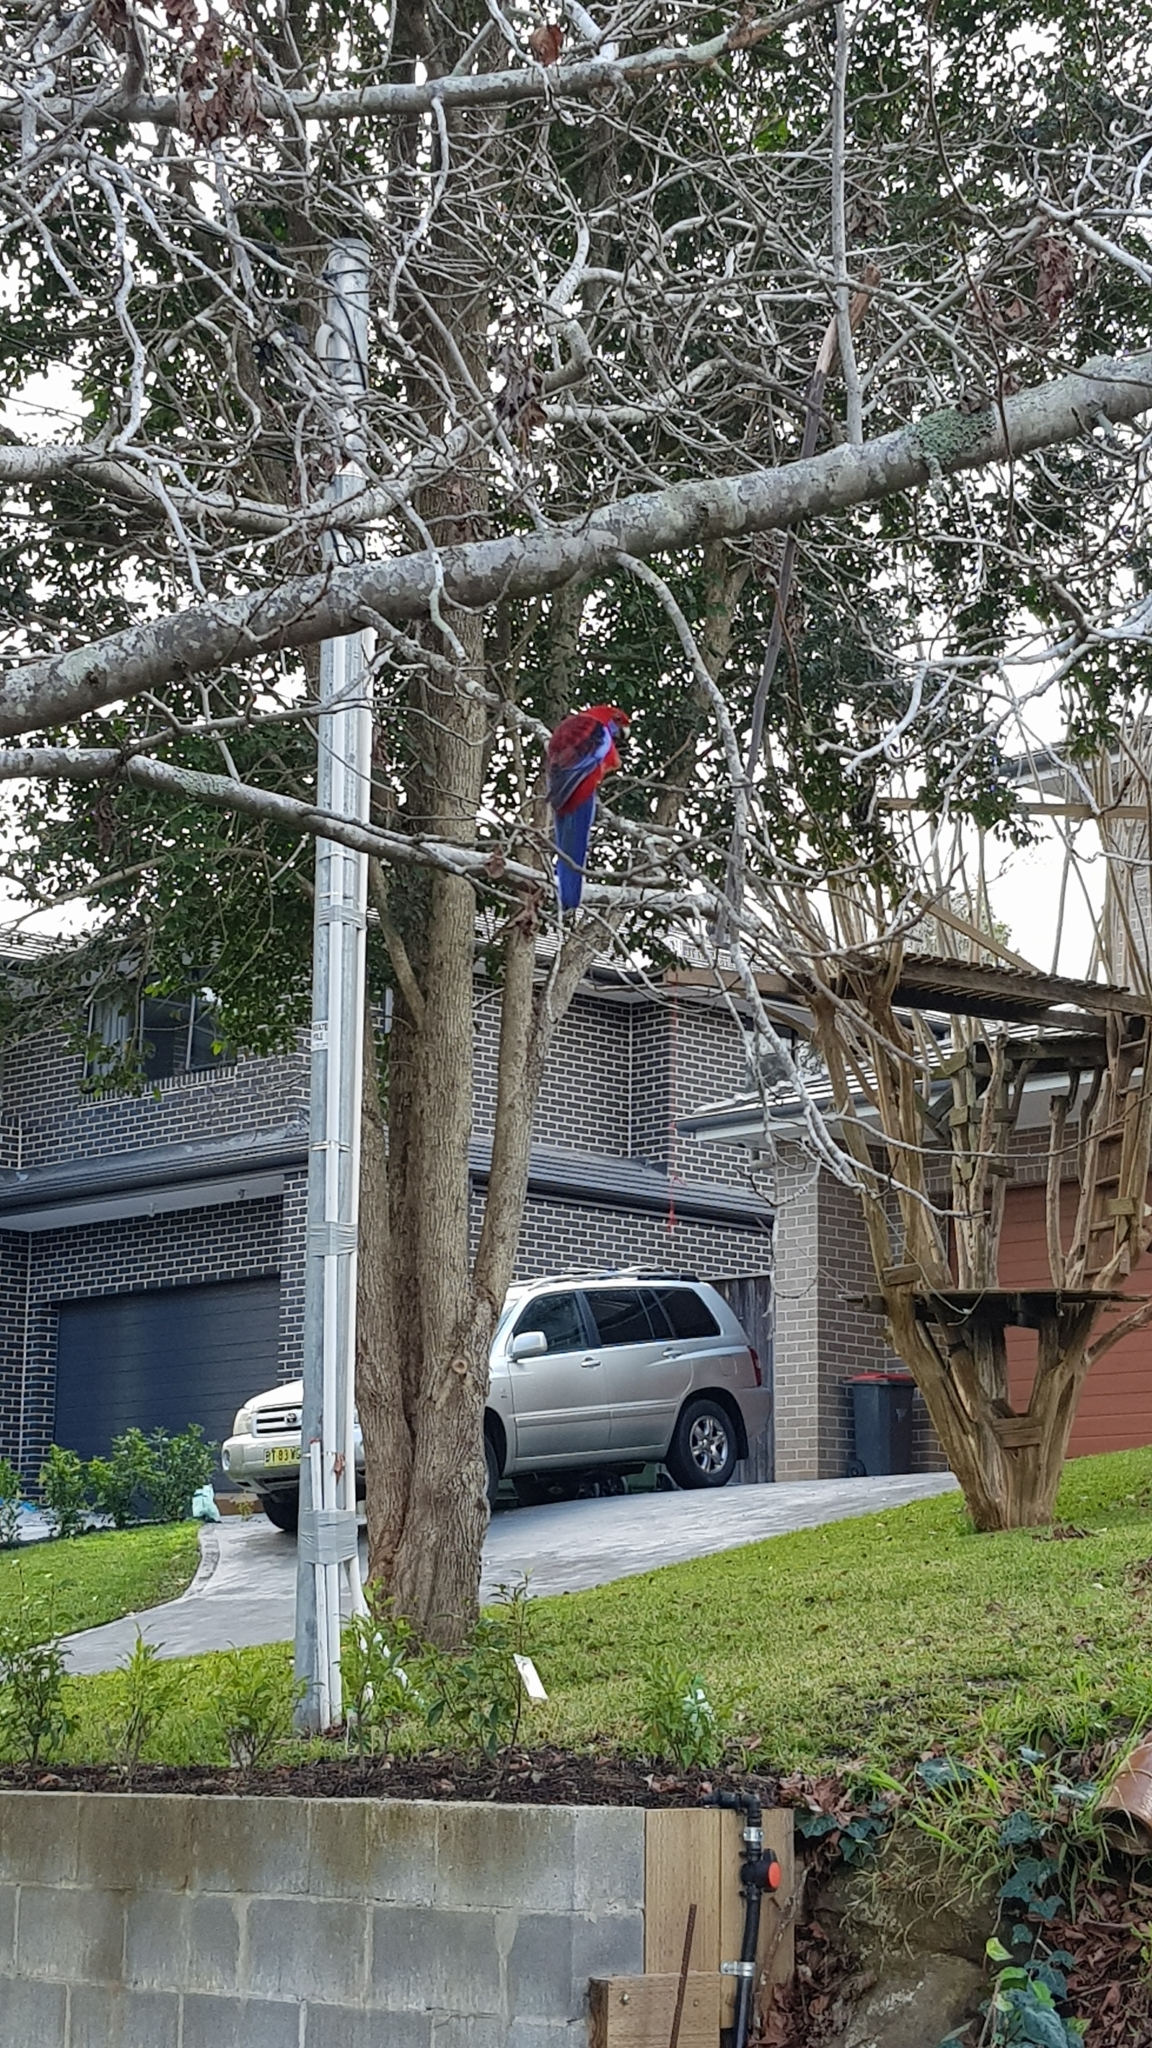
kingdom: Animalia
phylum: Chordata
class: Aves
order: Psittaciformes
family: Psittacidae
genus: Platycercus
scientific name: Platycercus elegans
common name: Crimson rosella
